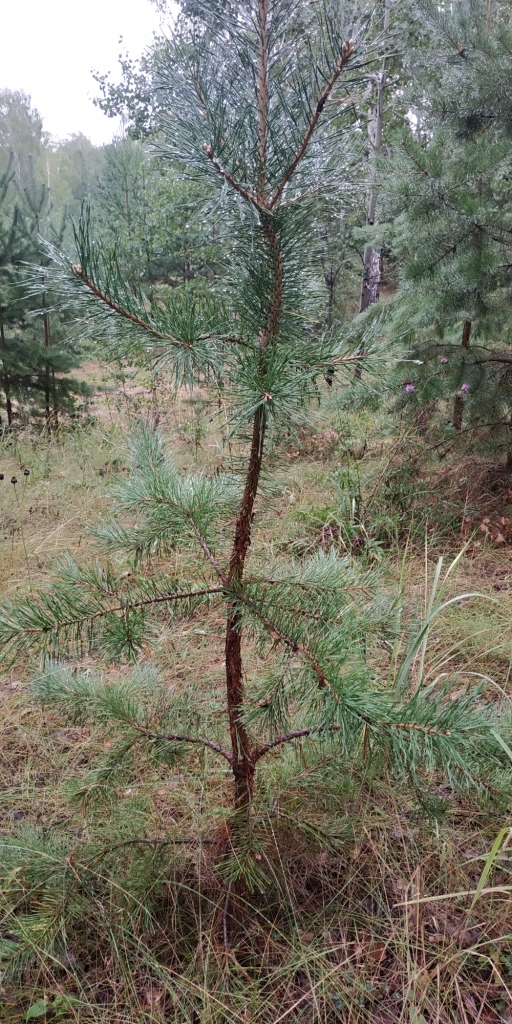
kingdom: Plantae
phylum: Tracheophyta
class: Pinopsida
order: Pinales
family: Pinaceae
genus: Pinus
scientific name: Pinus sylvestris
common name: Scots pine
